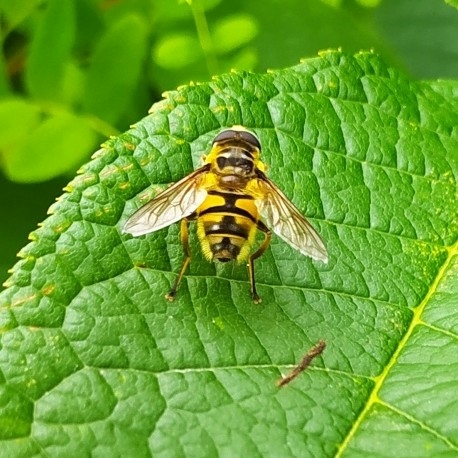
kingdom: Animalia
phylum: Arthropoda
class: Insecta
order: Diptera
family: Syrphidae
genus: Myathropa
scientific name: Myathropa florea
